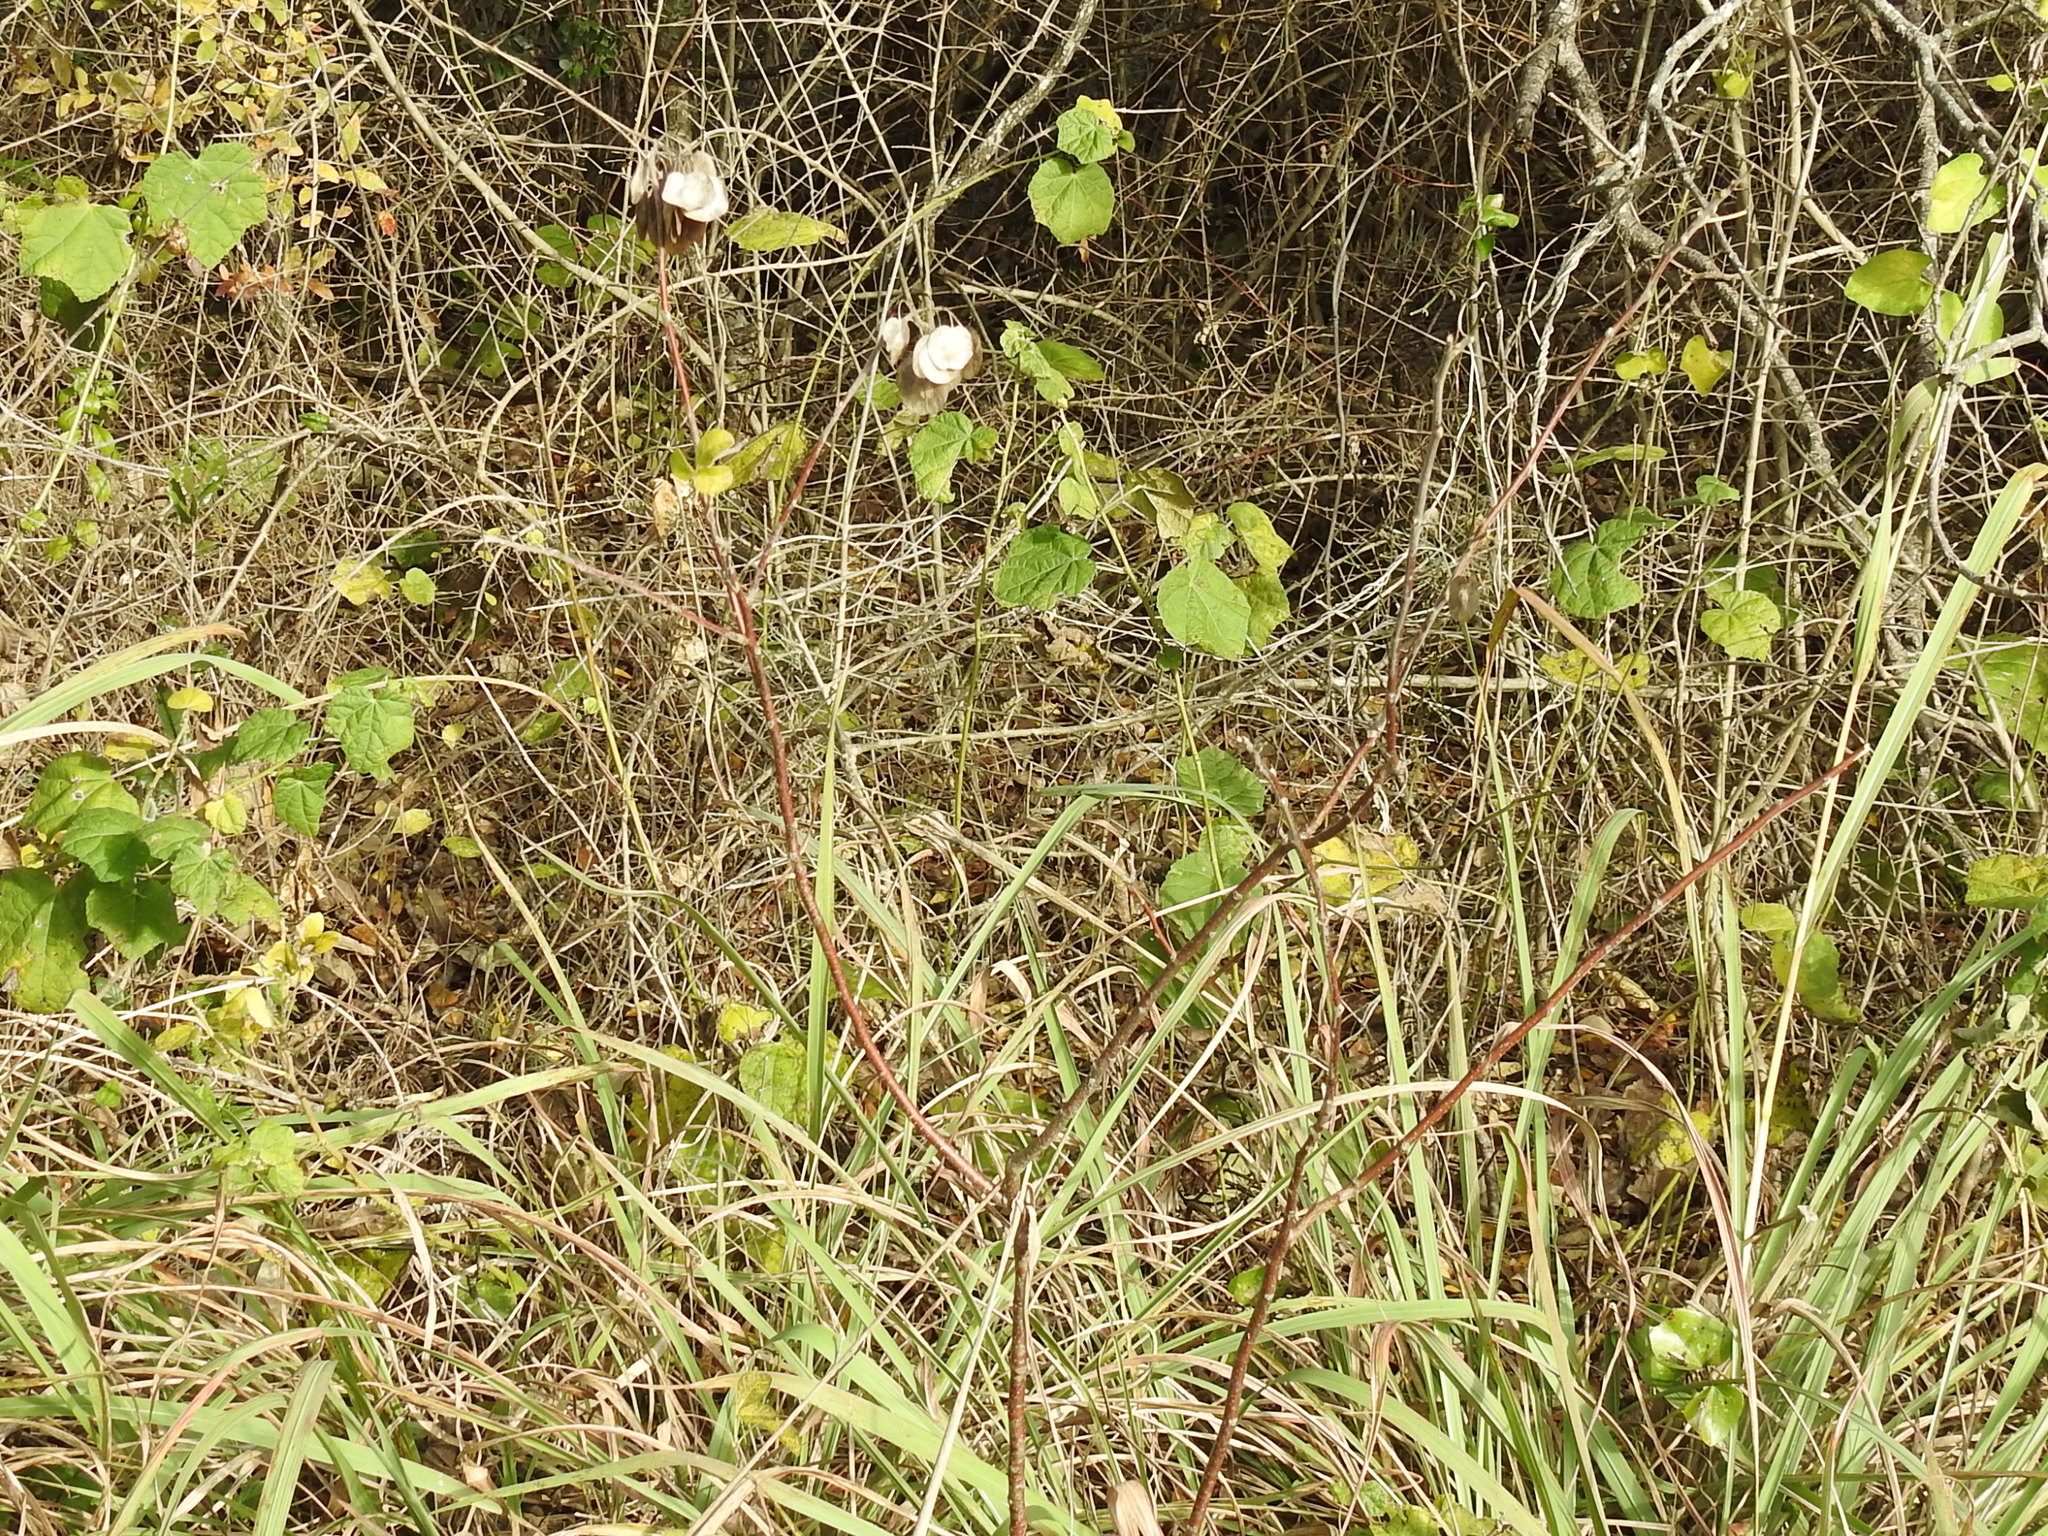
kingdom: Plantae
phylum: Tracheophyta
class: Magnoliopsida
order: Sapindales
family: Rutaceae
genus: Ptelea
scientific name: Ptelea trifoliata
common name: Common hop-tree
